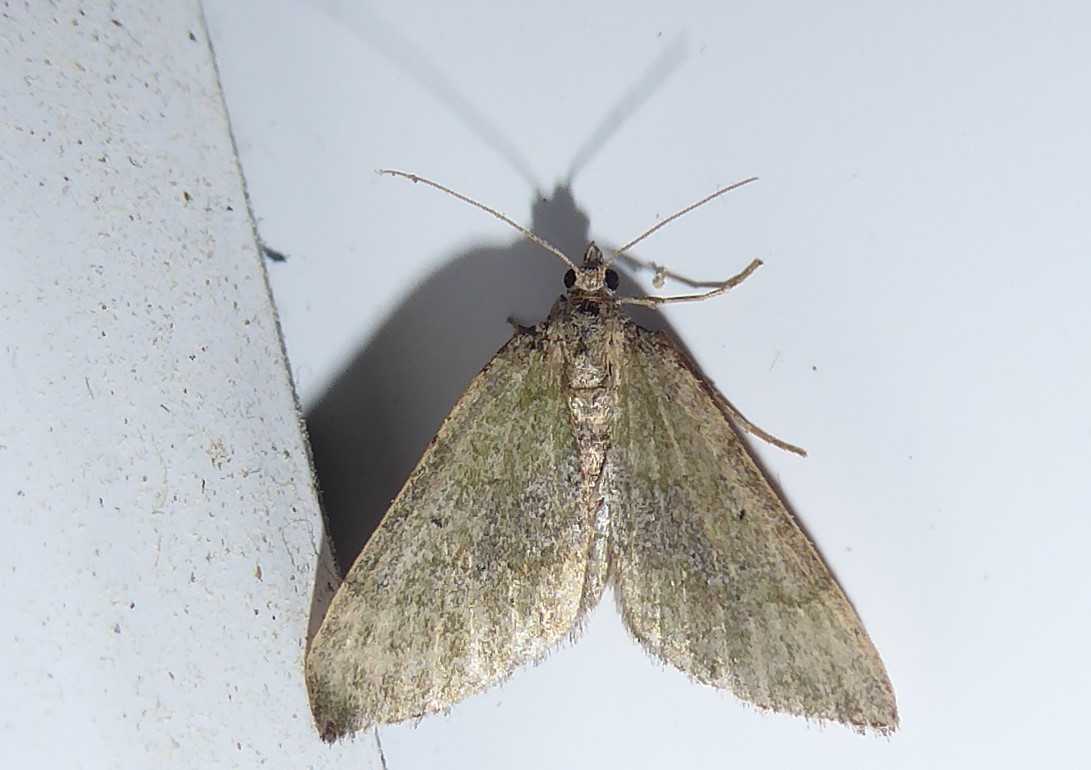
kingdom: Animalia
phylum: Arthropoda
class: Insecta
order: Lepidoptera
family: Geometridae
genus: Epyaxa
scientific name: Epyaxa rosearia
